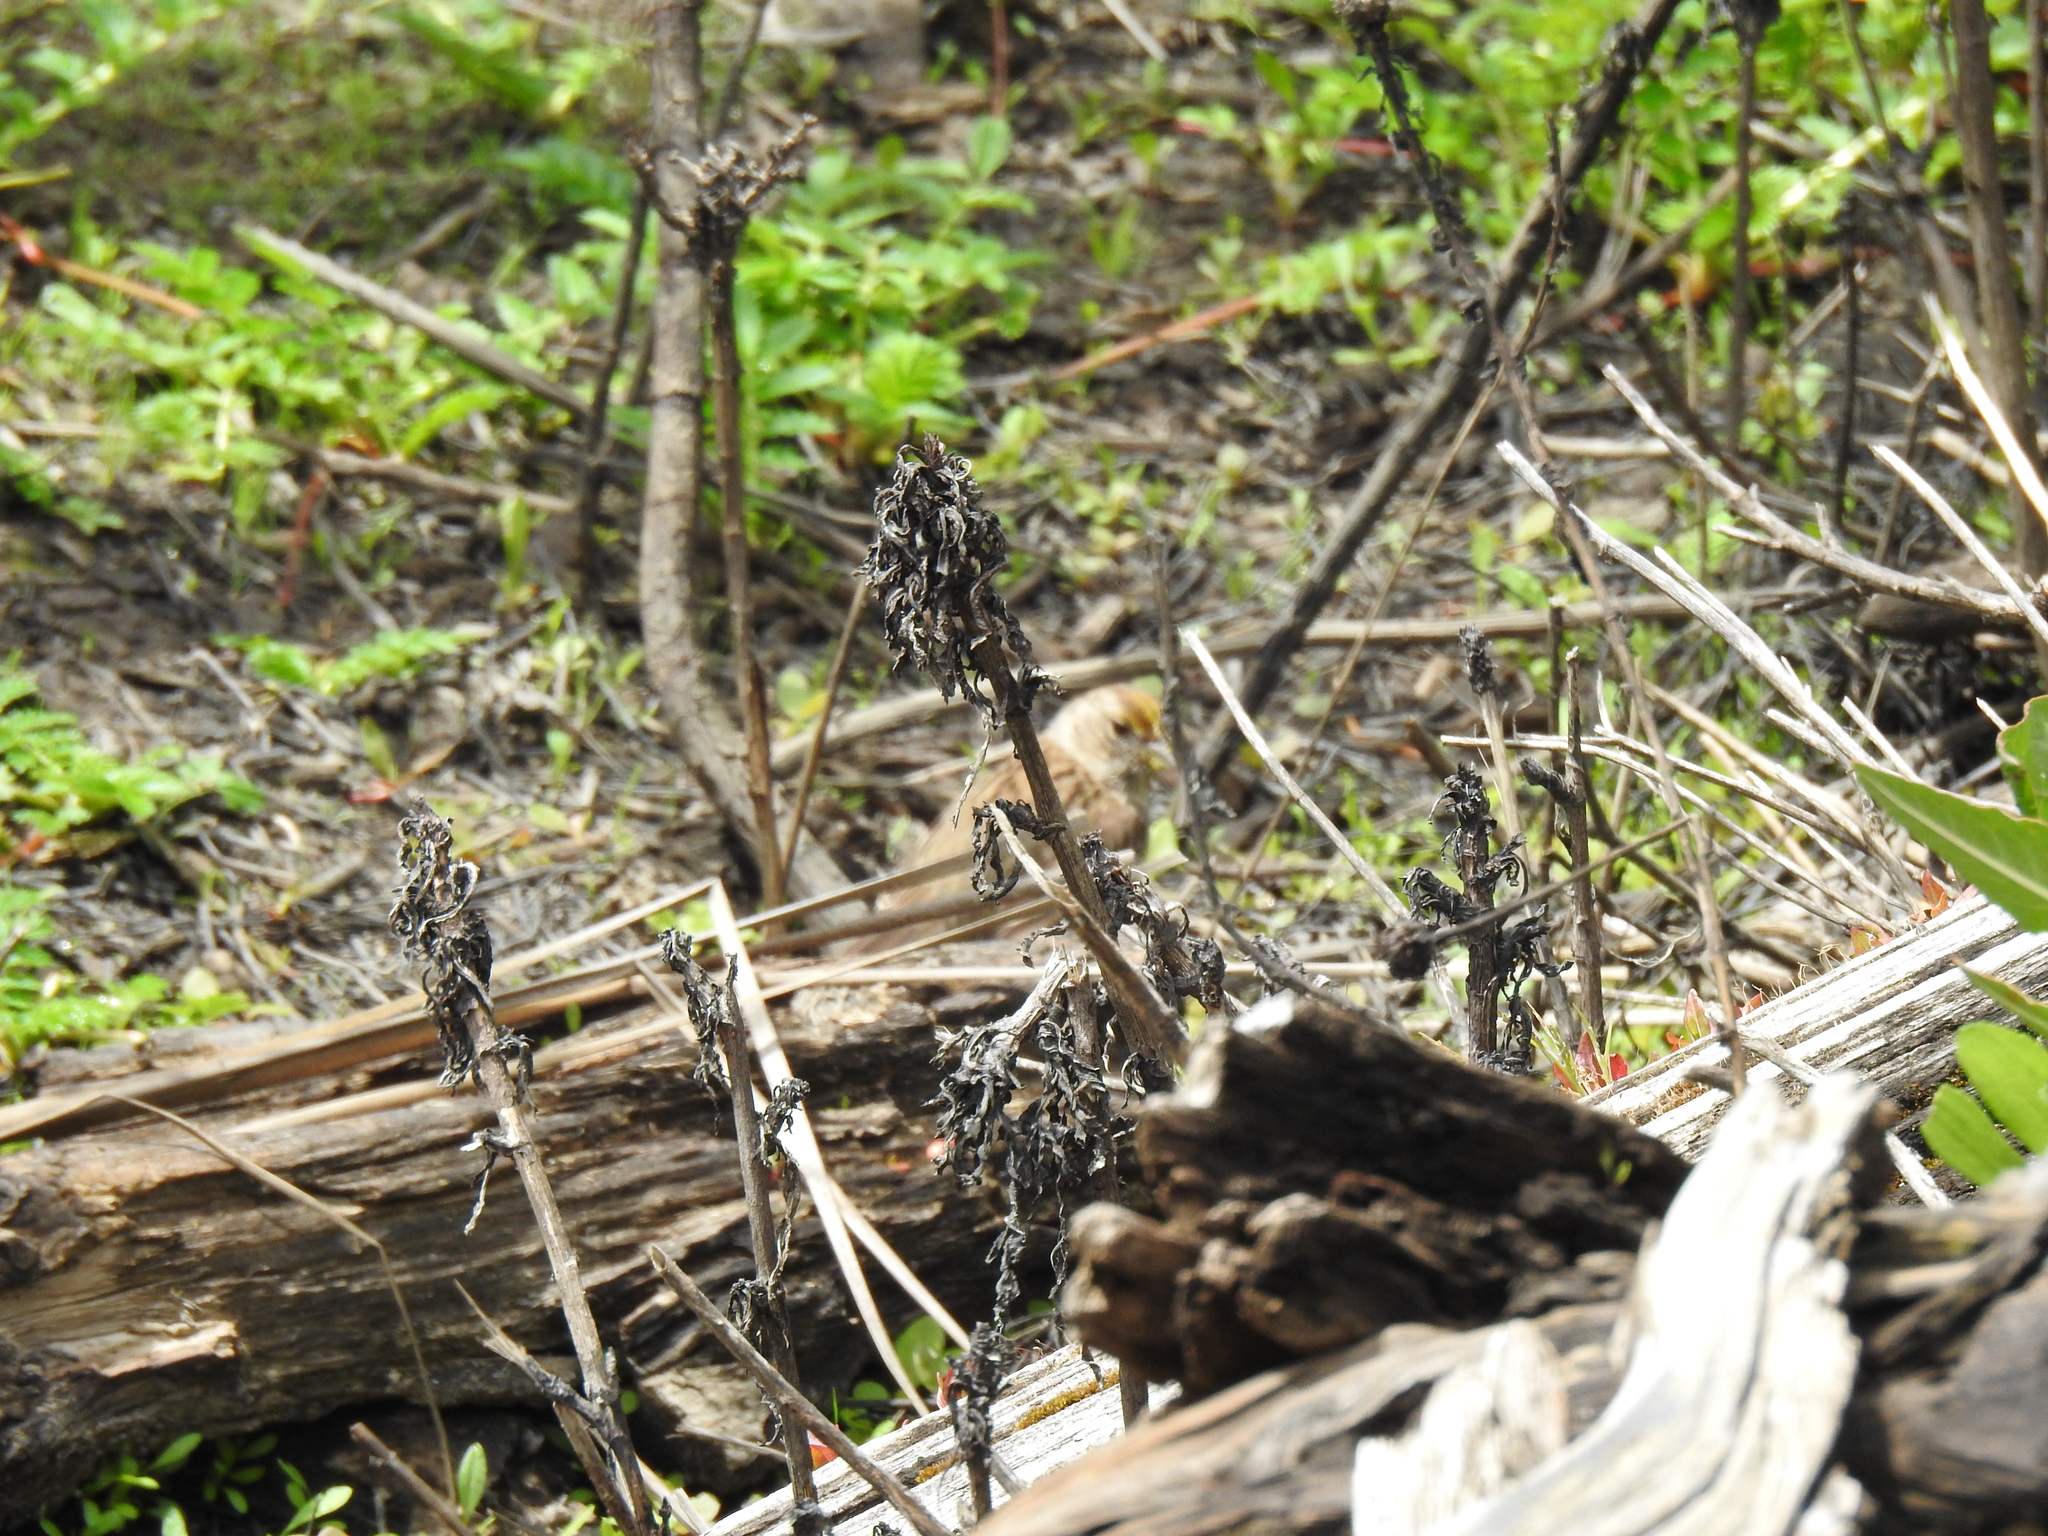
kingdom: Animalia
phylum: Chordata
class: Aves
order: Passeriformes
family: Passerellidae
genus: Zonotrichia
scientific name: Zonotrichia atricapilla
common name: Golden-crowned sparrow
